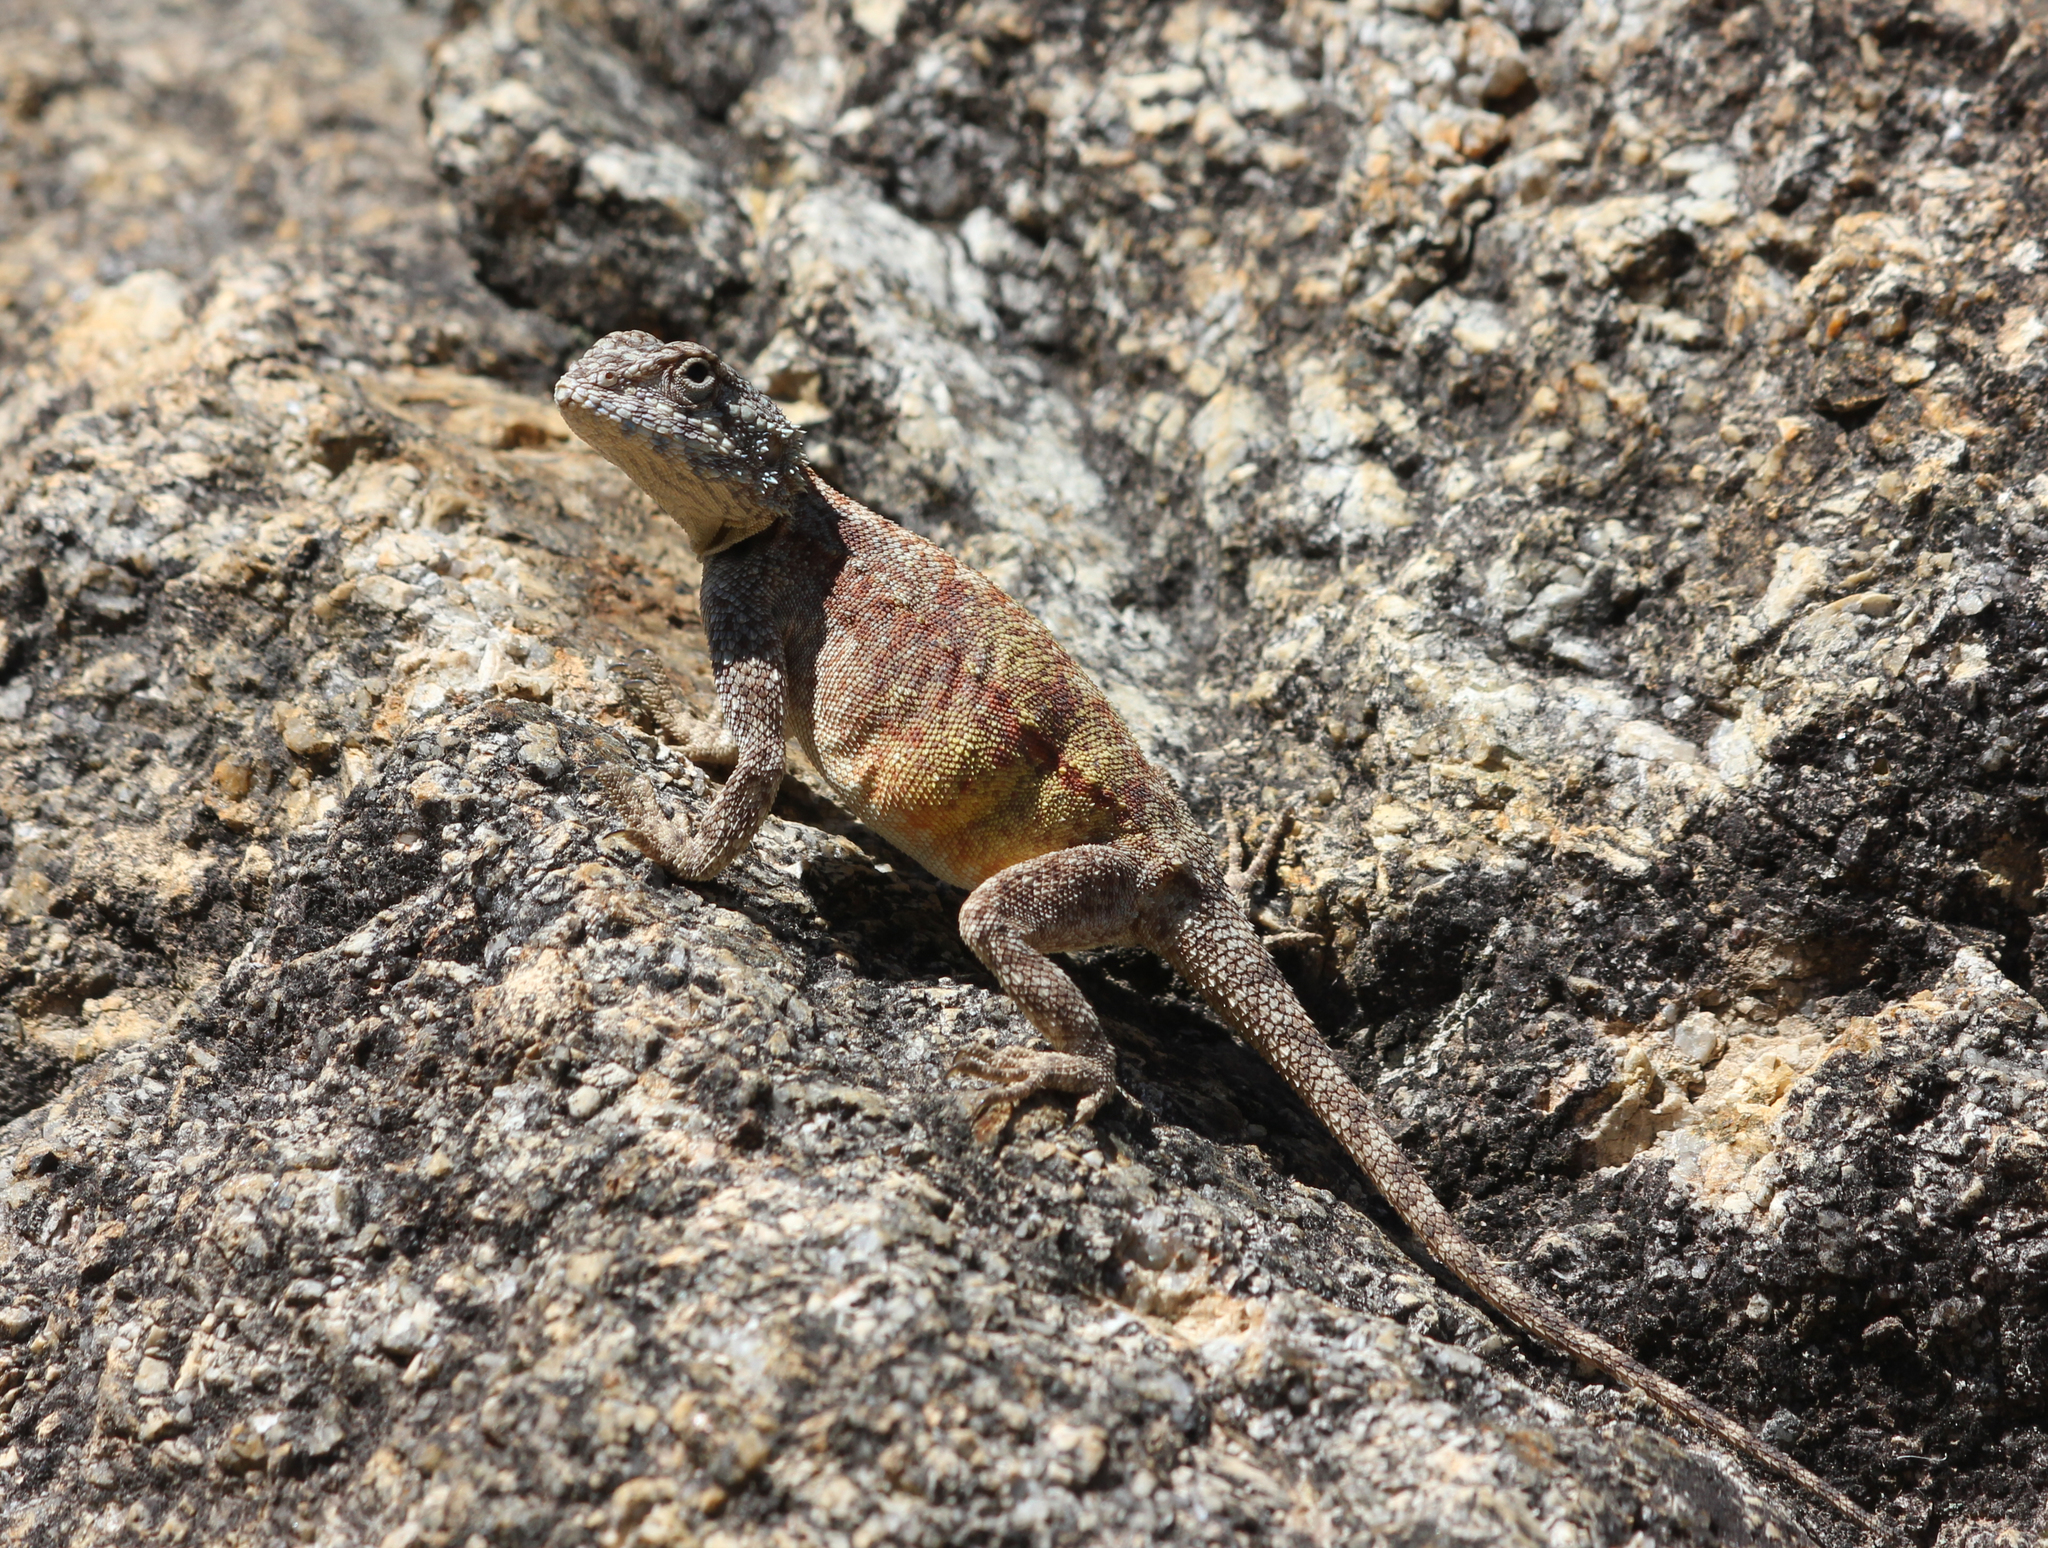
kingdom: Animalia
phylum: Chordata
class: Squamata
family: Agamidae
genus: Agama
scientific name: Agama atra
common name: Southern african rock agama
